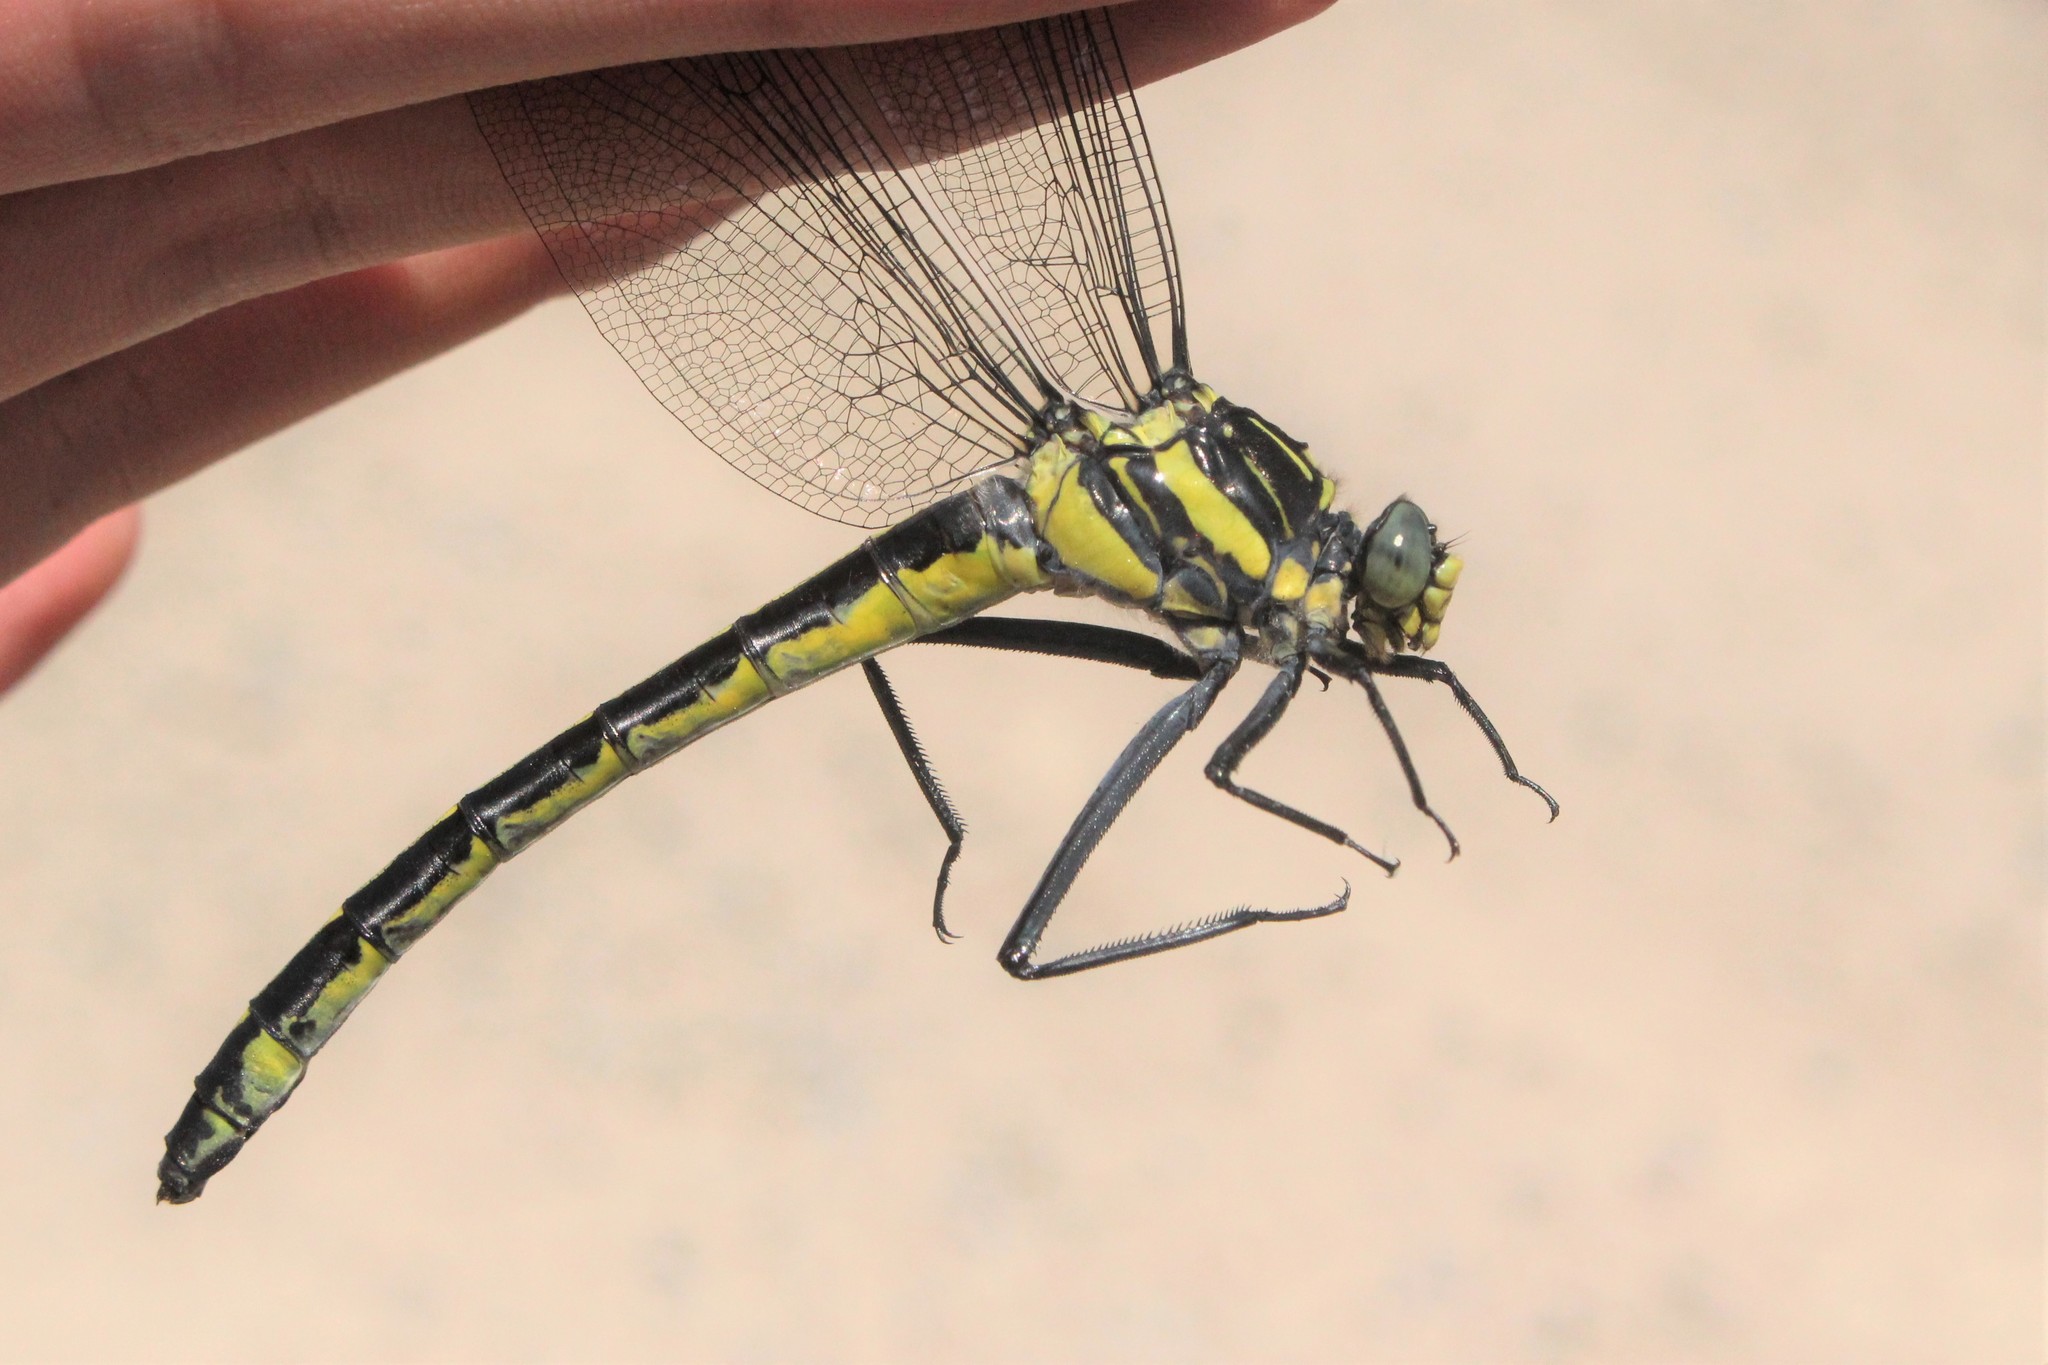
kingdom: Animalia
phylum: Arthropoda
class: Insecta
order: Odonata
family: Gomphidae
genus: Hagenius
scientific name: Hagenius brevistylus
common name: Dragonhunter
